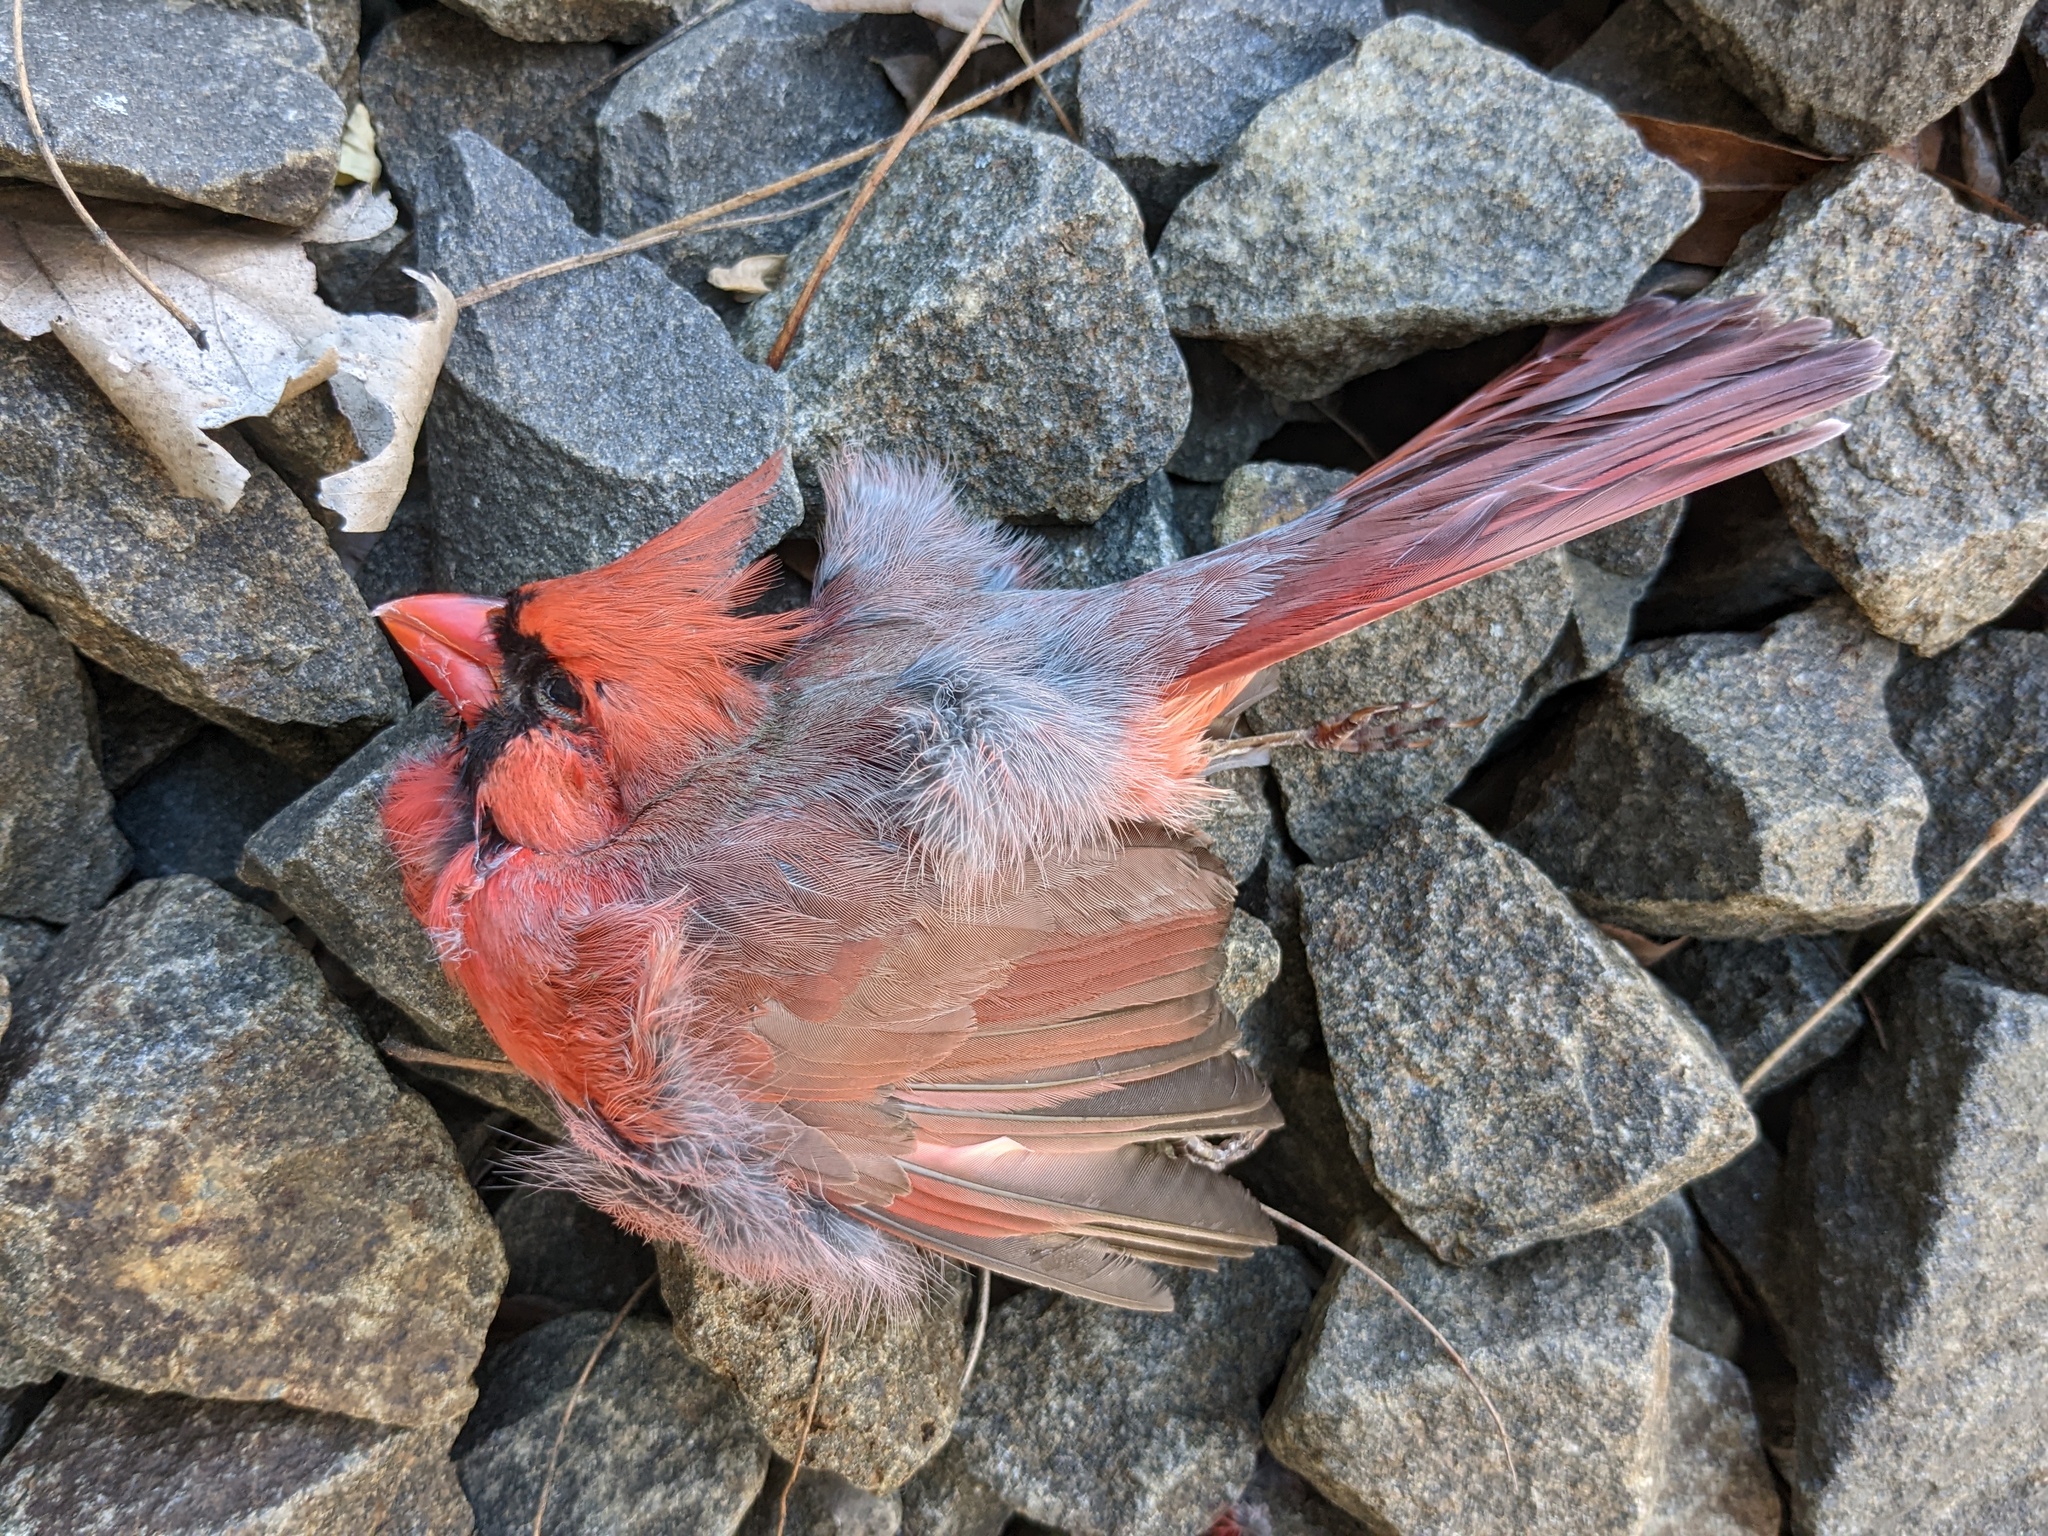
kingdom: Animalia
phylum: Chordata
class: Aves
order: Passeriformes
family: Cardinalidae
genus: Cardinalis
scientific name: Cardinalis cardinalis
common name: Northern cardinal
